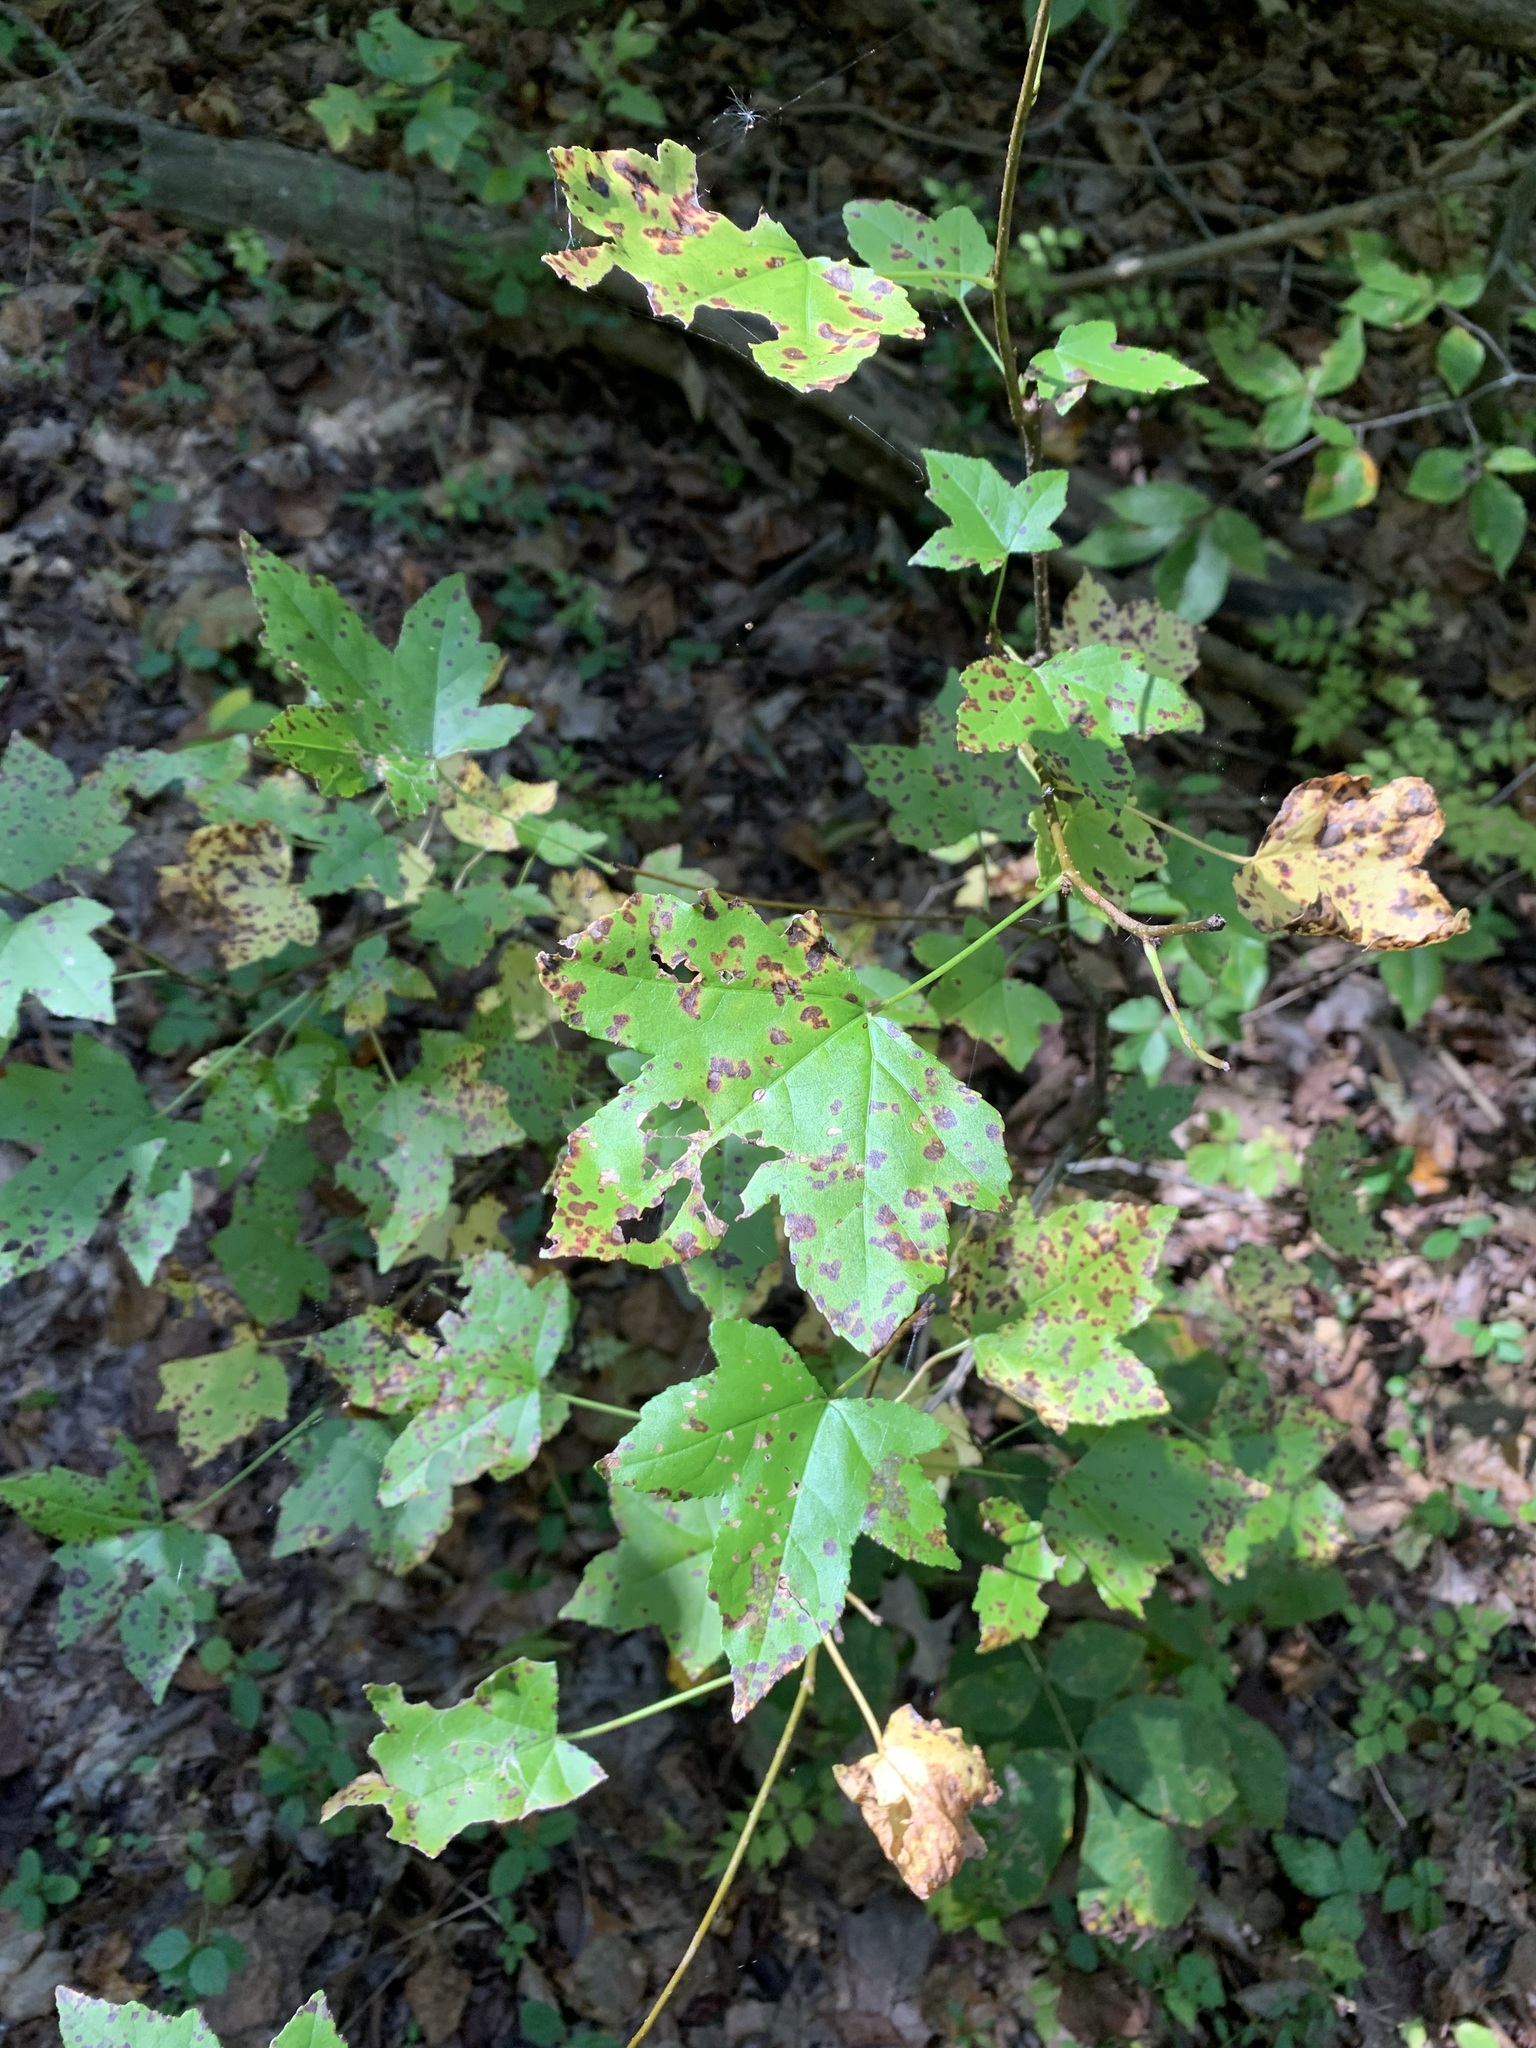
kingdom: Plantae
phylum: Tracheophyta
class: Magnoliopsida
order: Saxifragales
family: Altingiaceae
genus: Liquidambar
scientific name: Liquidambar styraciflua
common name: Sweet gum
